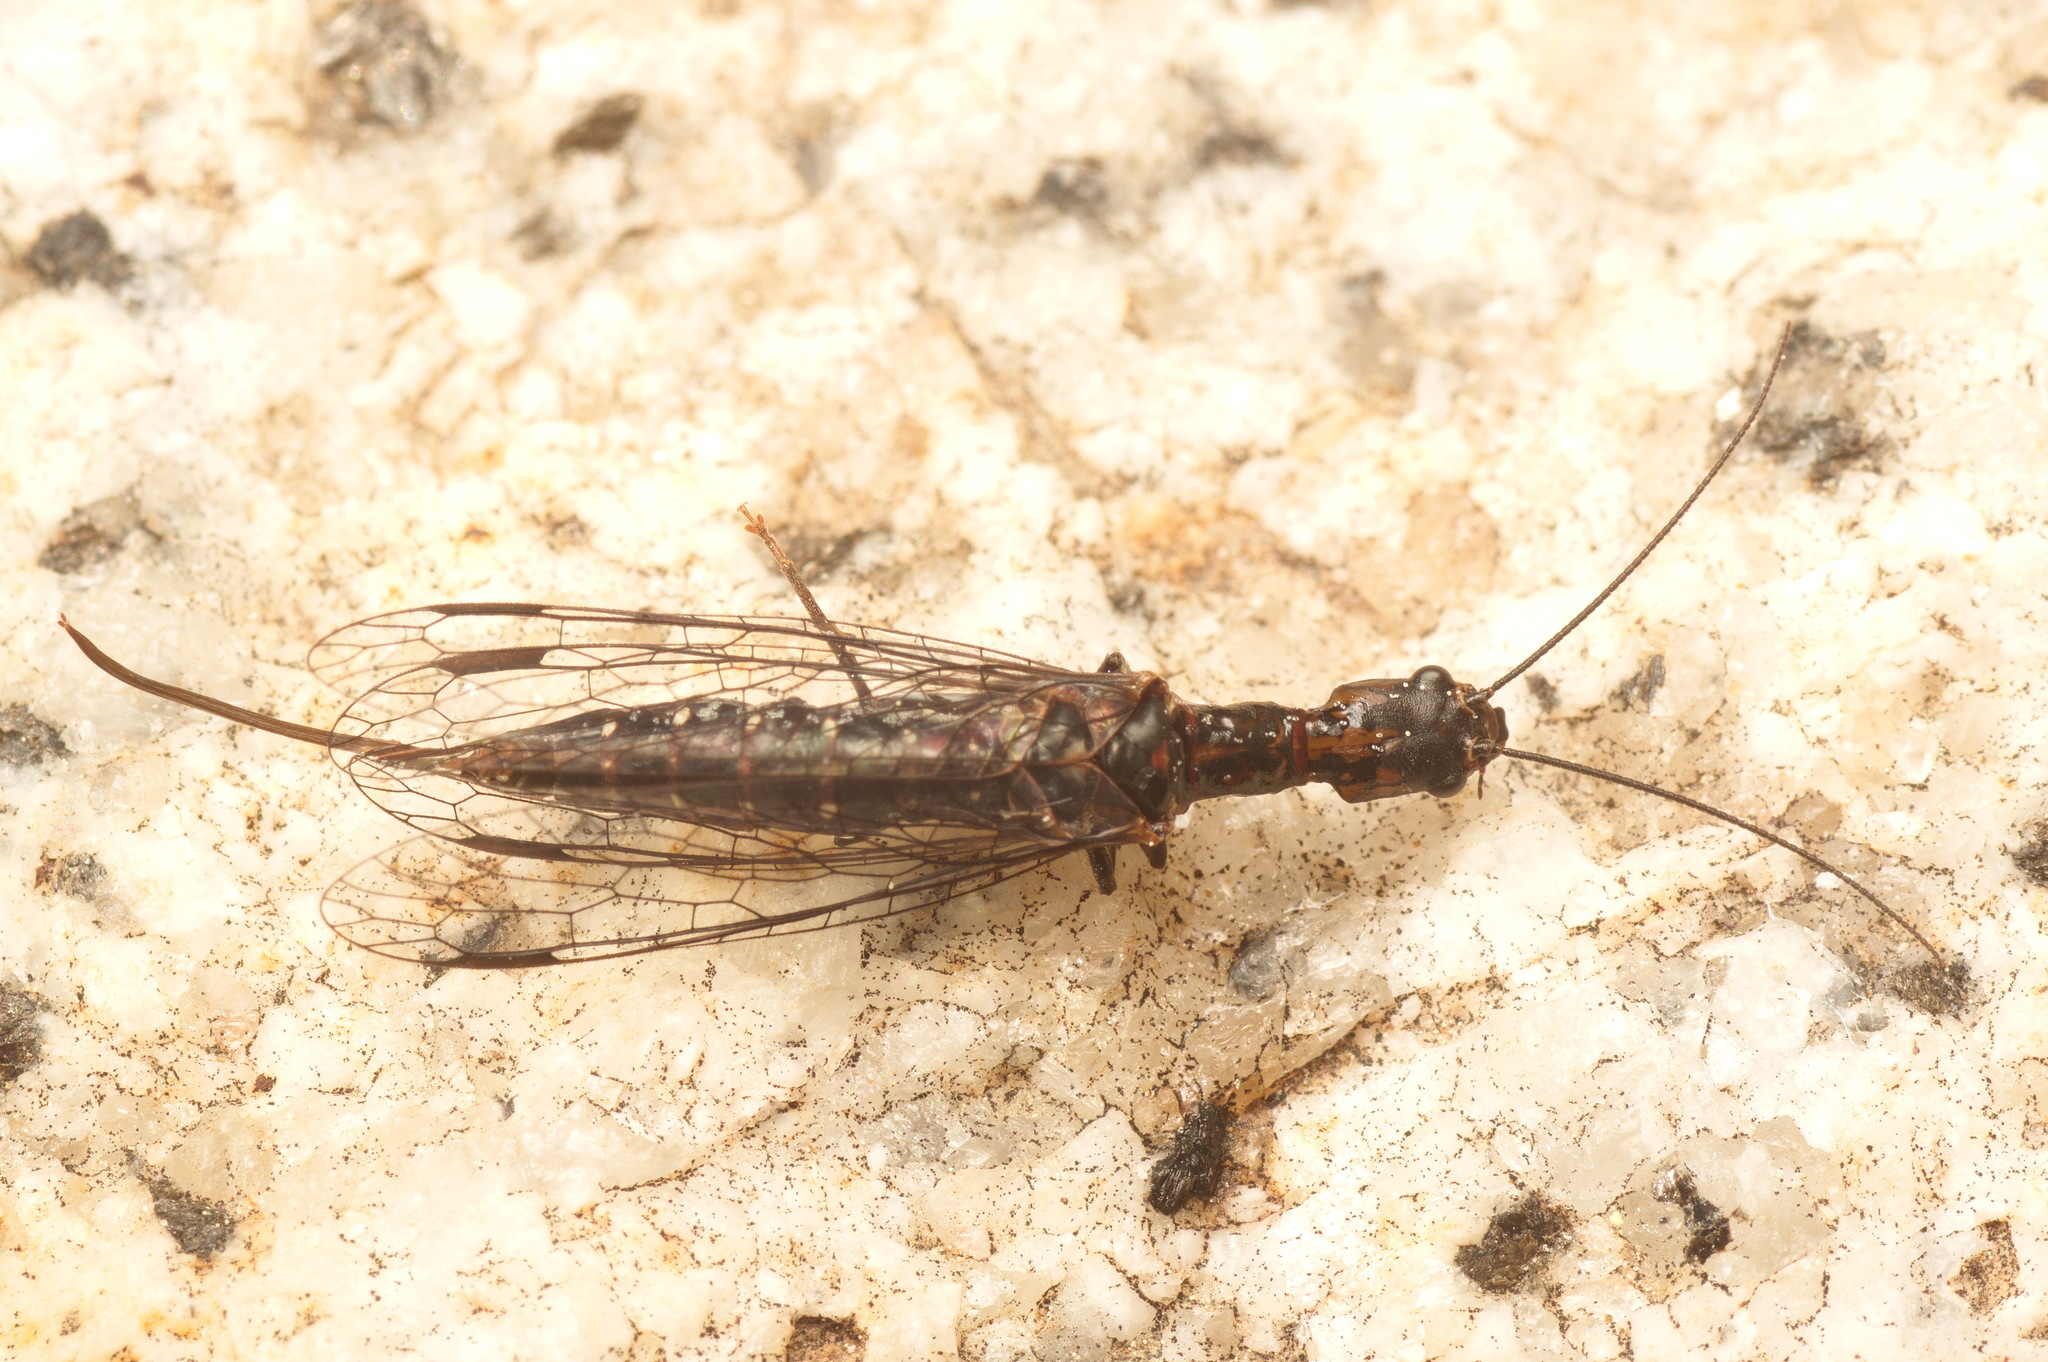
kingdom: Animalia
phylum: Arthropoda
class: Insecta
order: Raphidioptera
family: Inocelliidae
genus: Fibla
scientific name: Fibla hesperica
